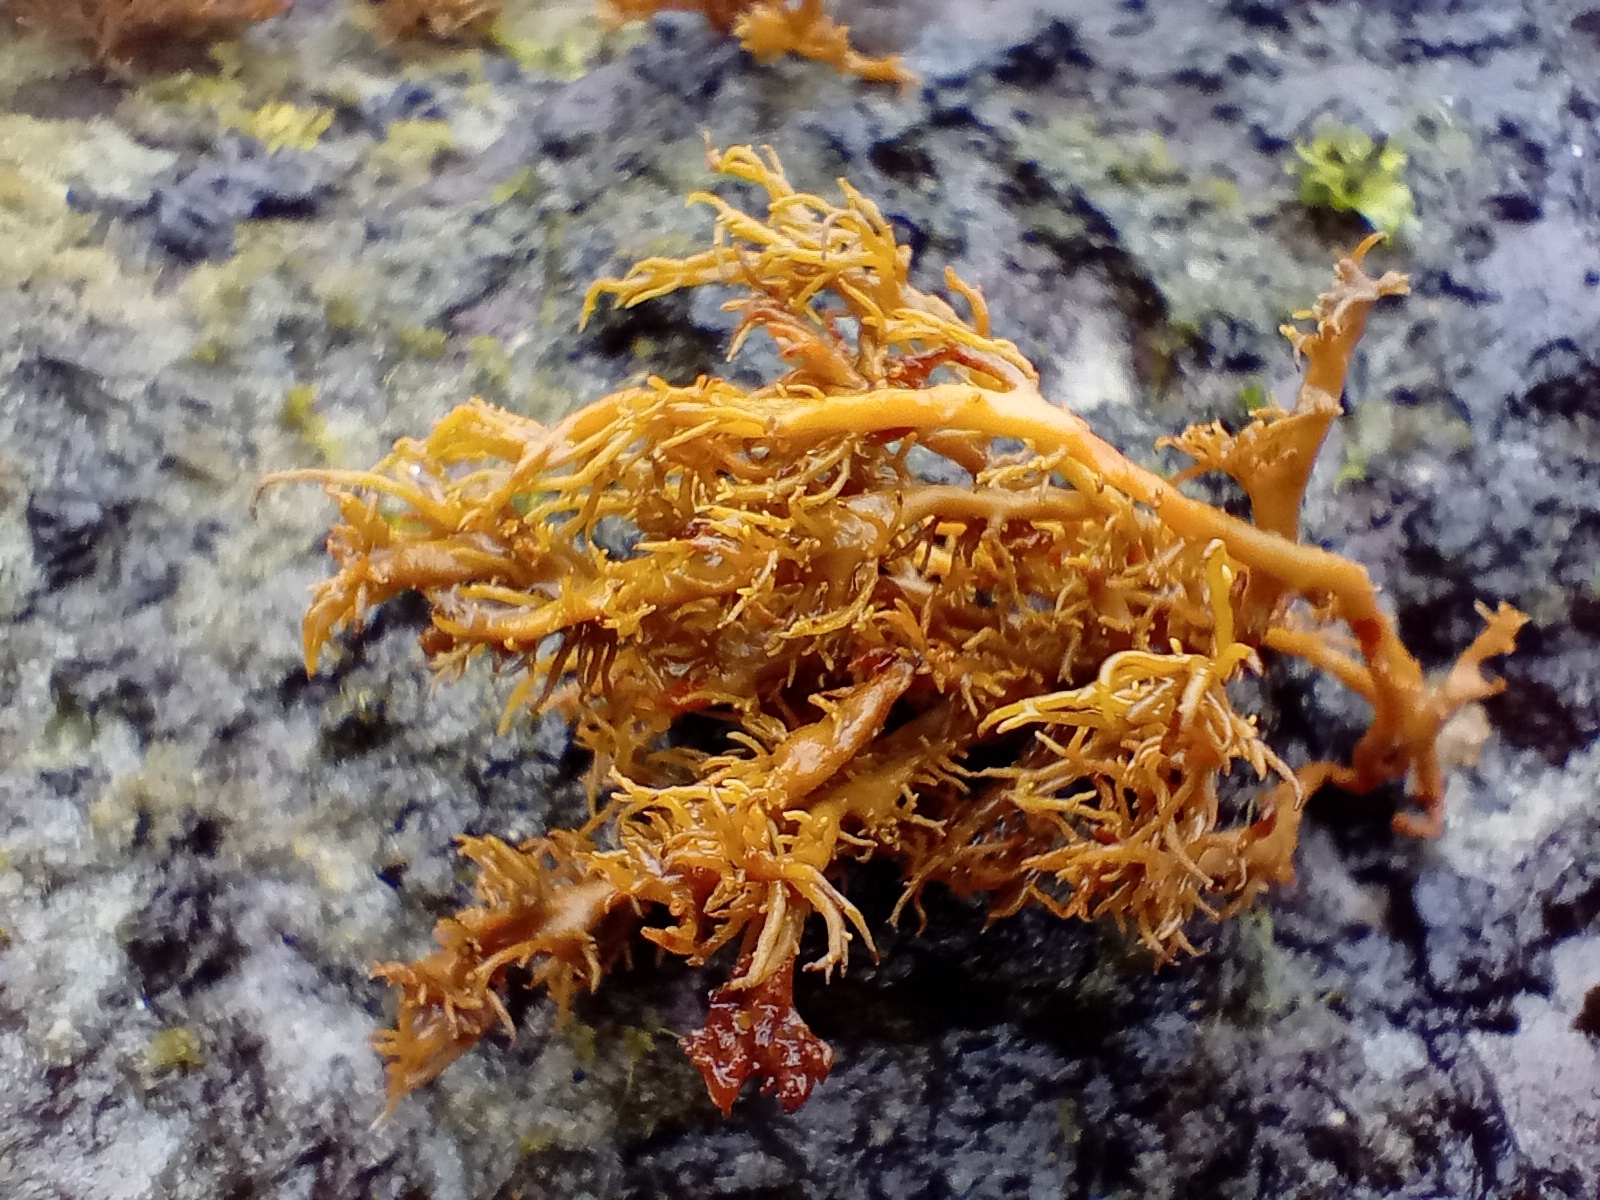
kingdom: Chromista
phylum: Ochrophyta
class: Phaeophyceae
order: Scytothamnales
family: Scytothamnaceae
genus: Scytothamnus
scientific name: Scytothamnus australis
